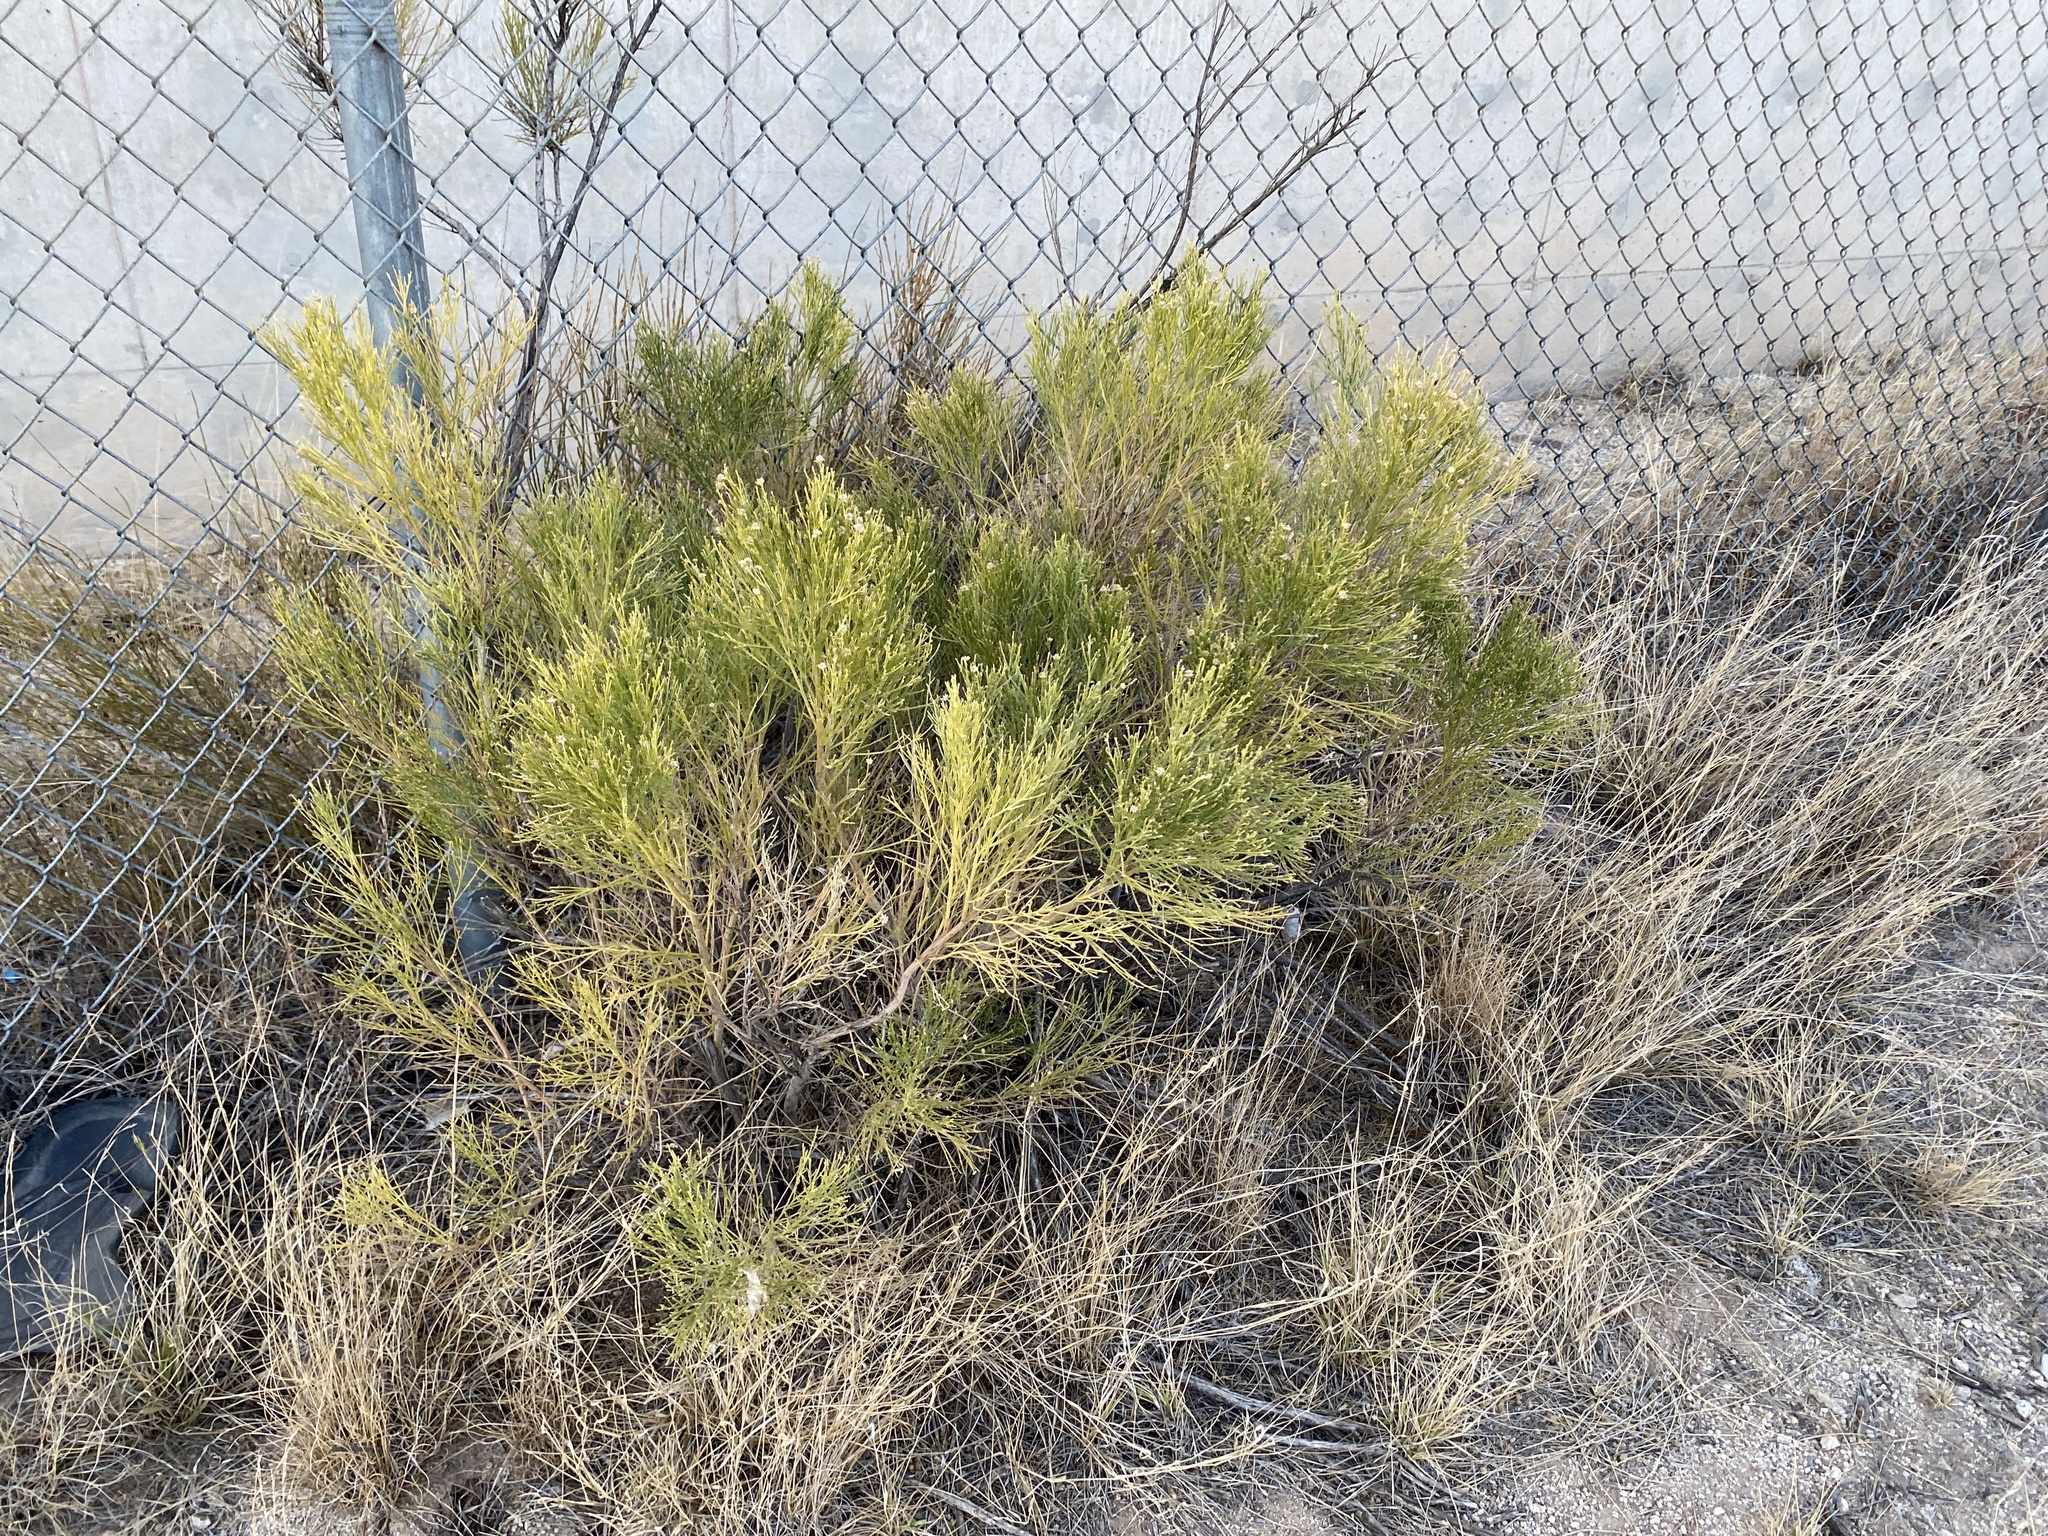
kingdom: Plantae
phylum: Tracheophyta
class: Magnoliopsida
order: Asterales
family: Asteraceae
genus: Baccharis
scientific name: Baccharis sarothroides
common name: Desert-broom
